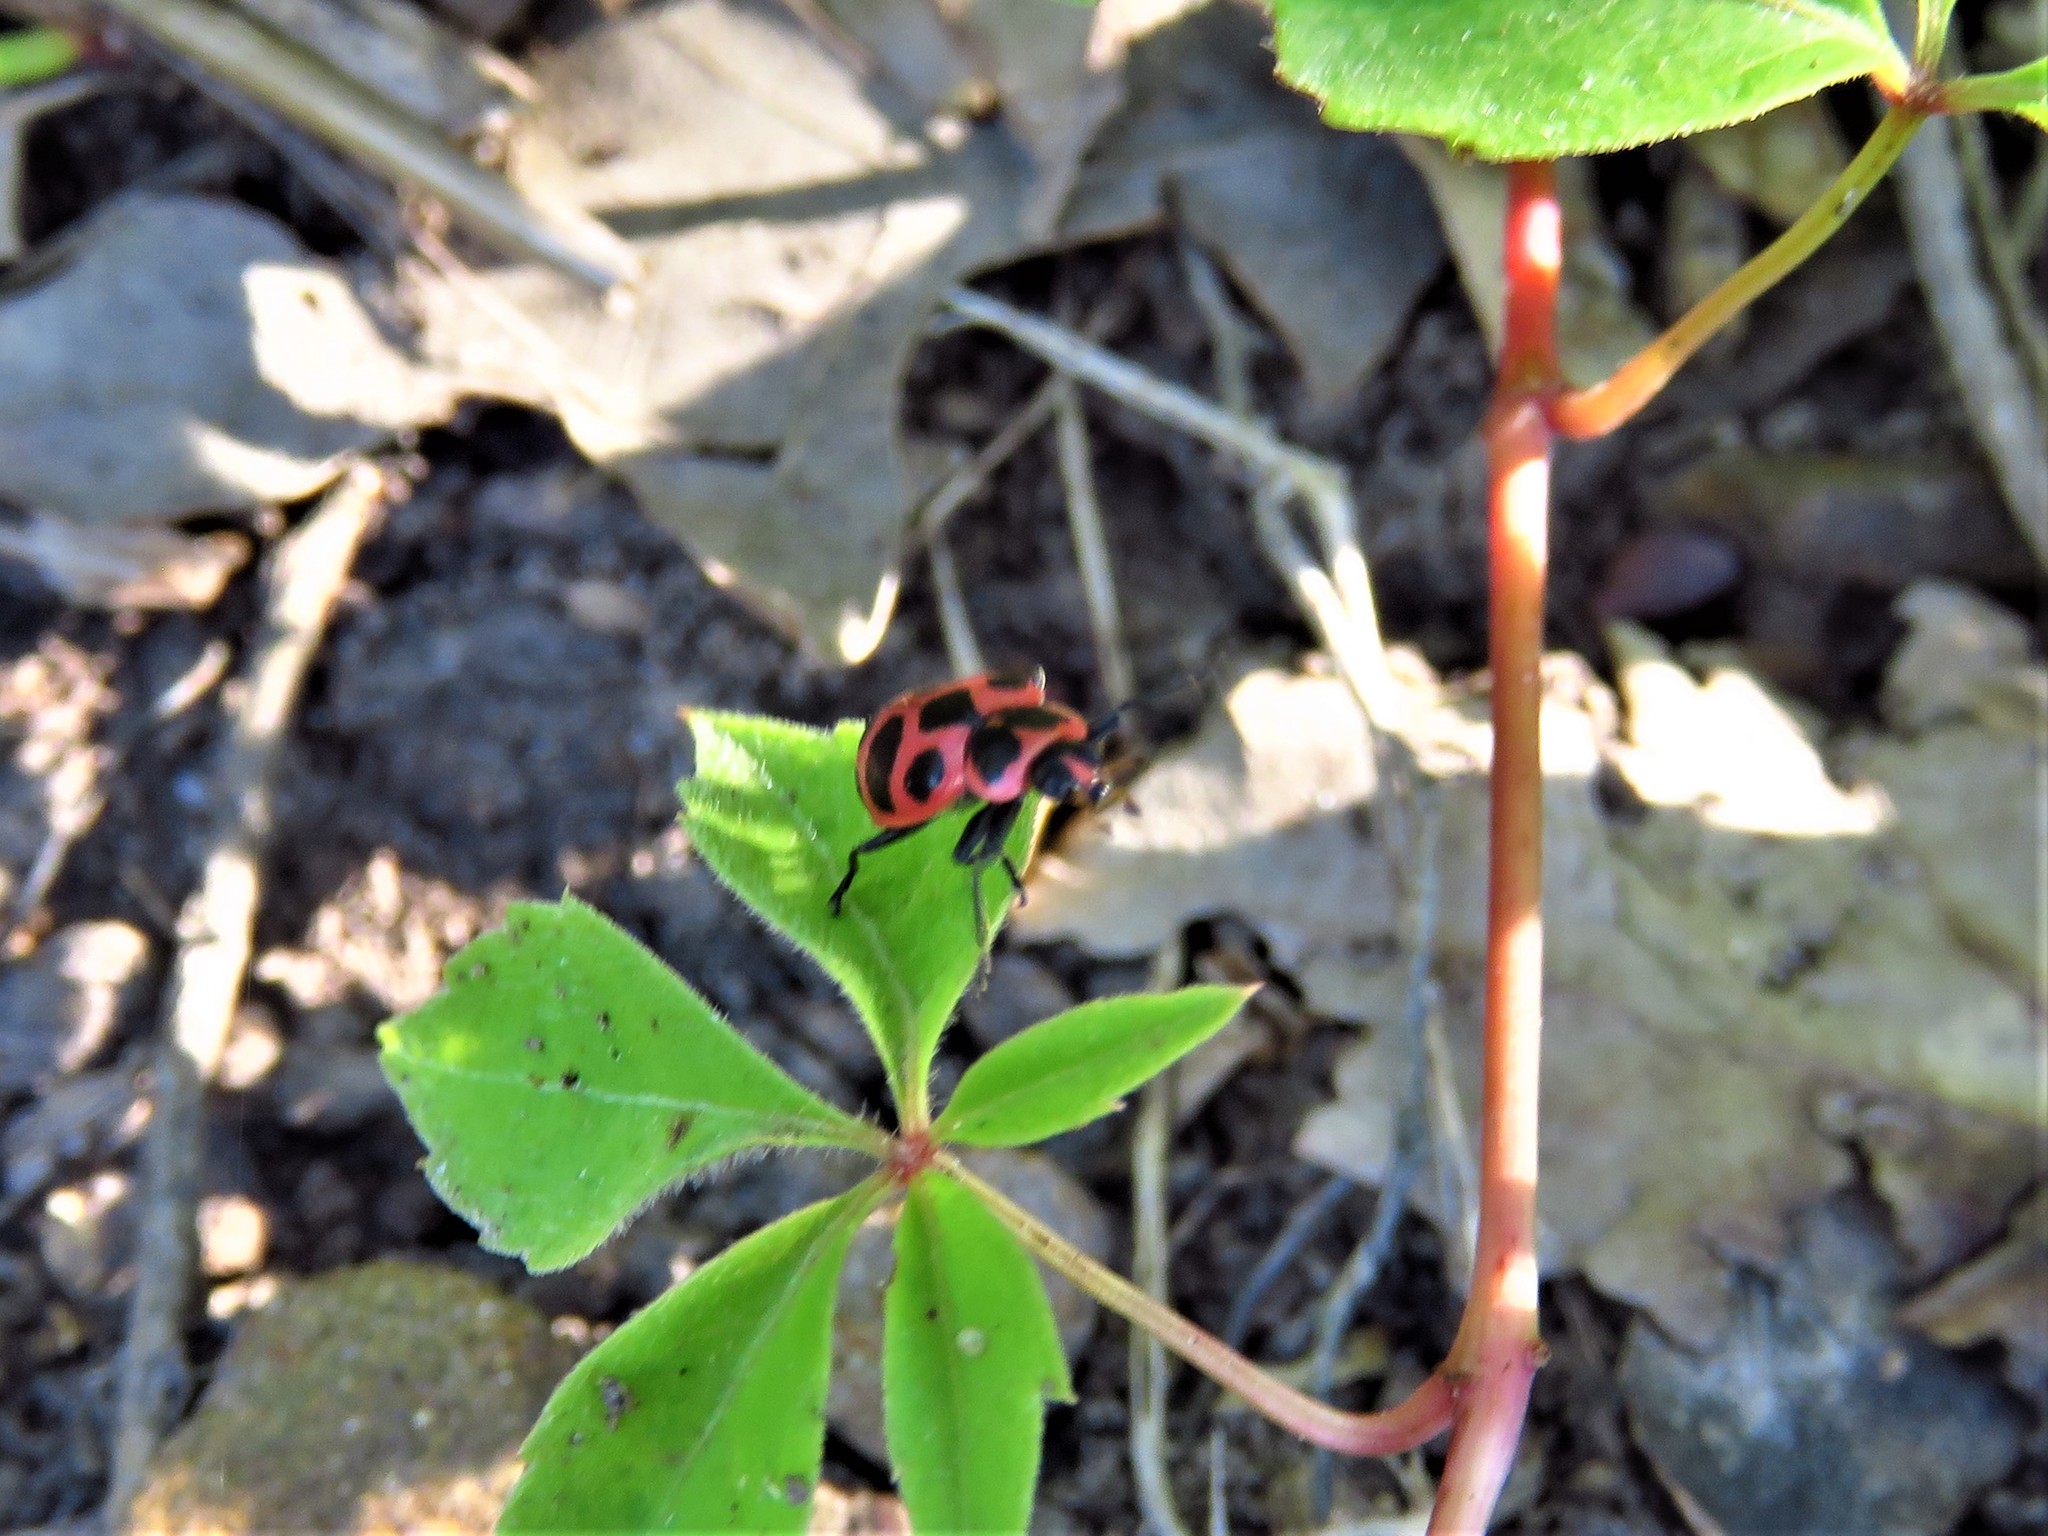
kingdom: Animalia
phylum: Arthropoda
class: Insecta
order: Coleoptera
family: Coccinellidae
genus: Coleomegilla
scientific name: Coleomegilla maculata
